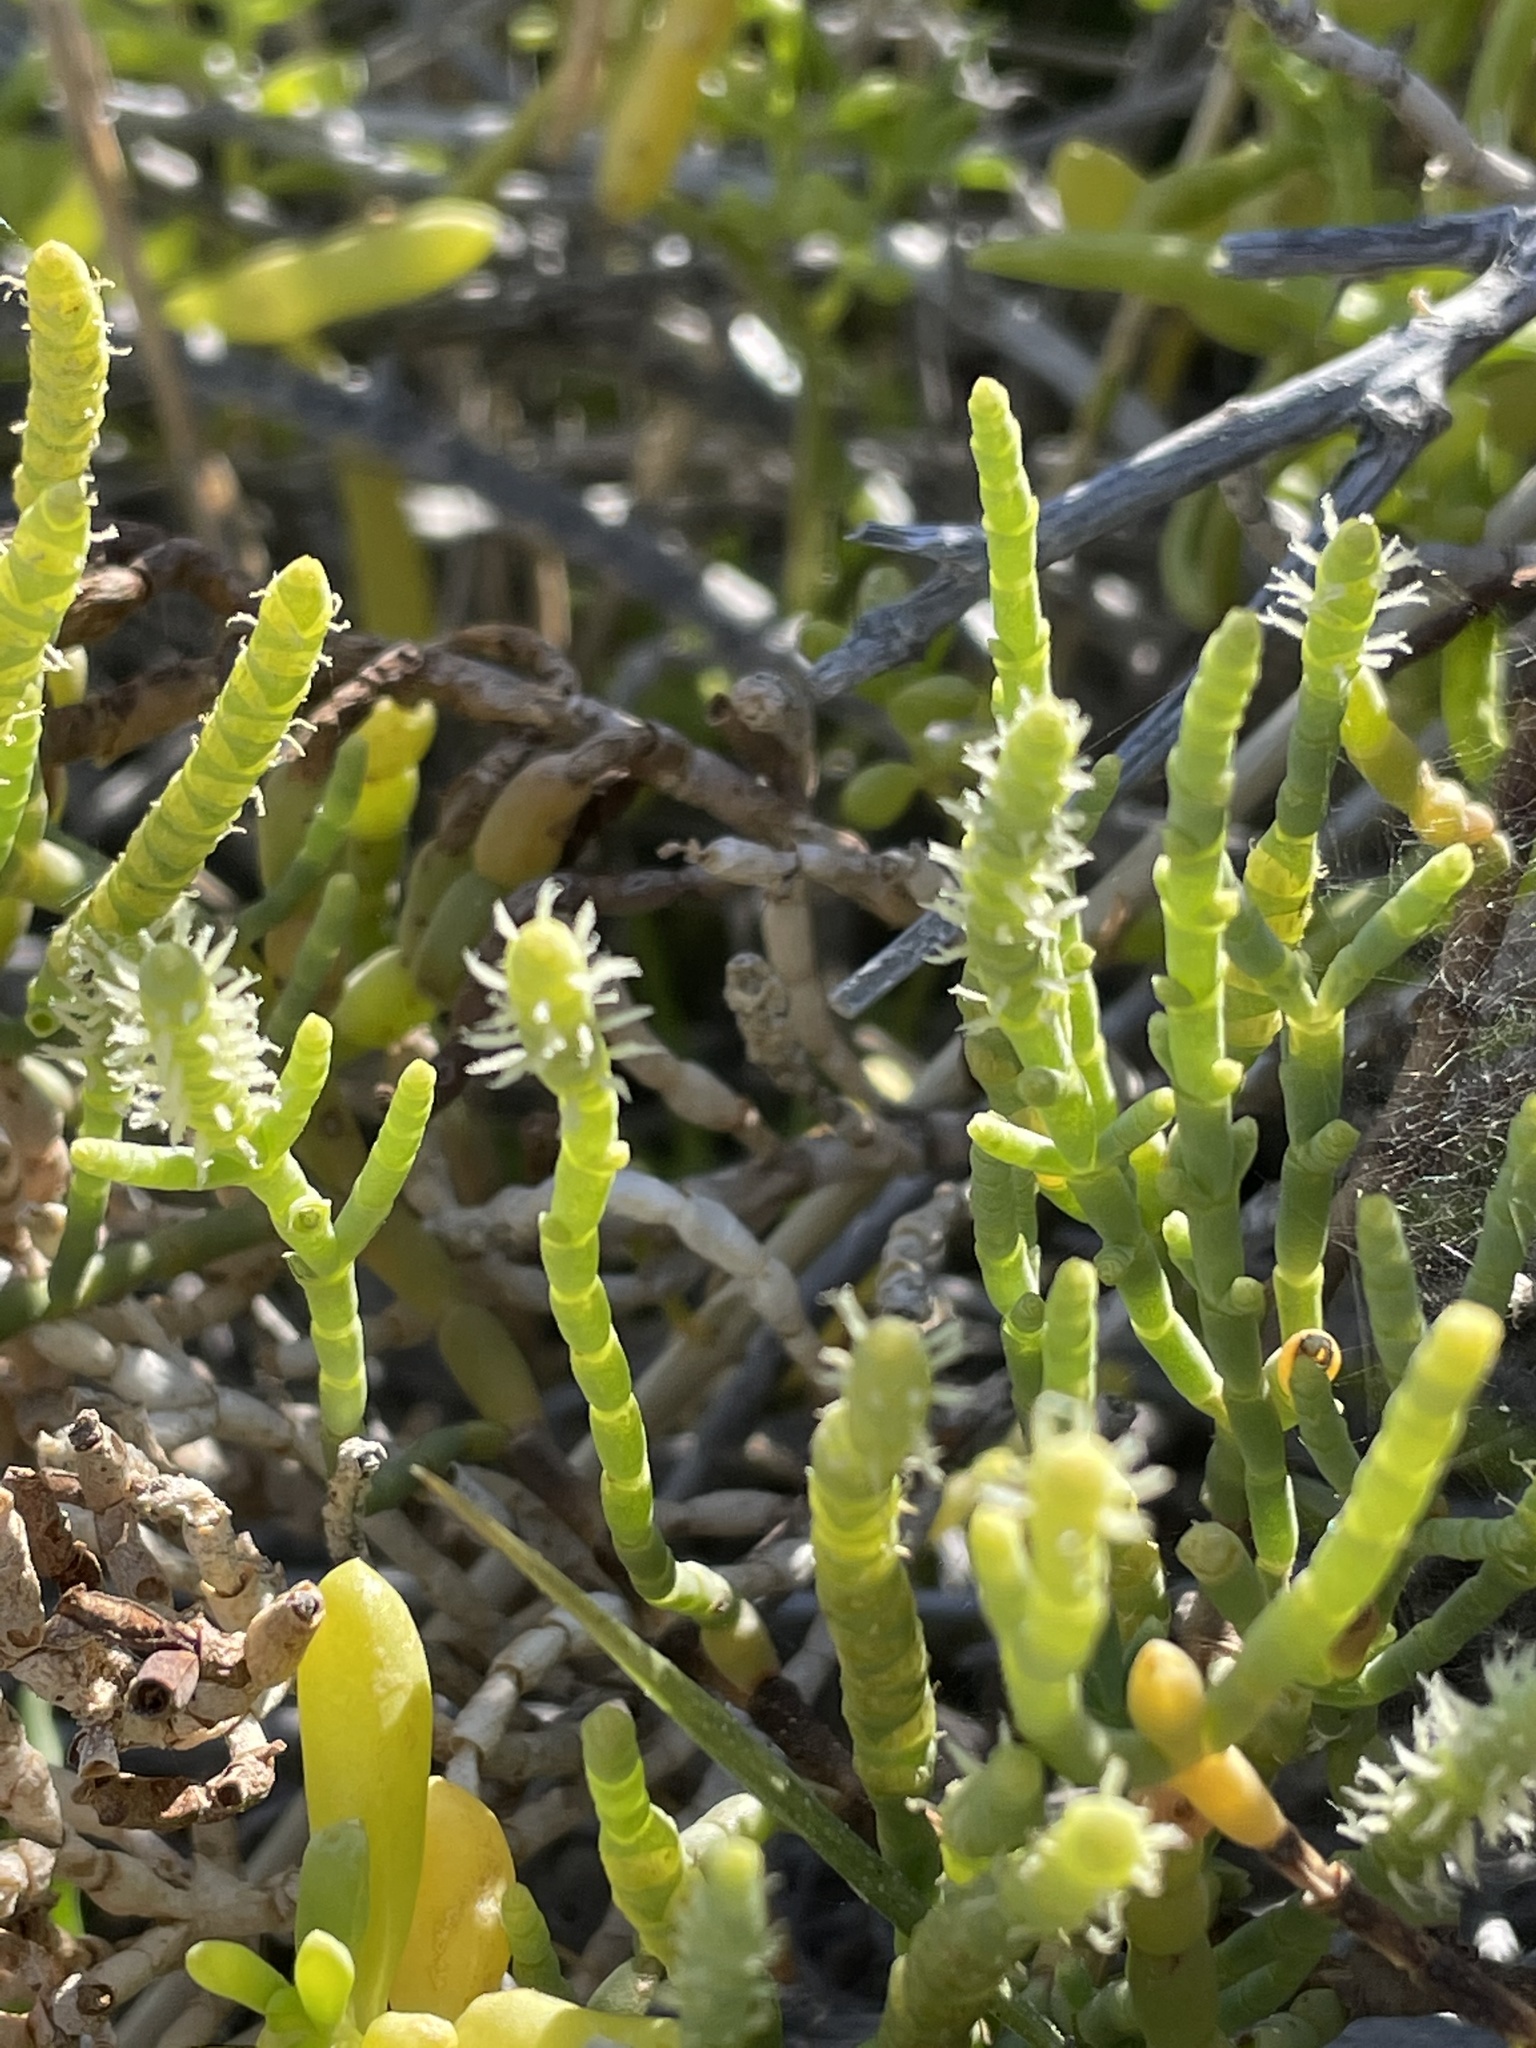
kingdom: Plantae
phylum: Tracheophyta
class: Magnoliopsida
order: Caryophyllales
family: Amaranthaceae
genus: Arthroceras
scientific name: Arthroceras subterminale
